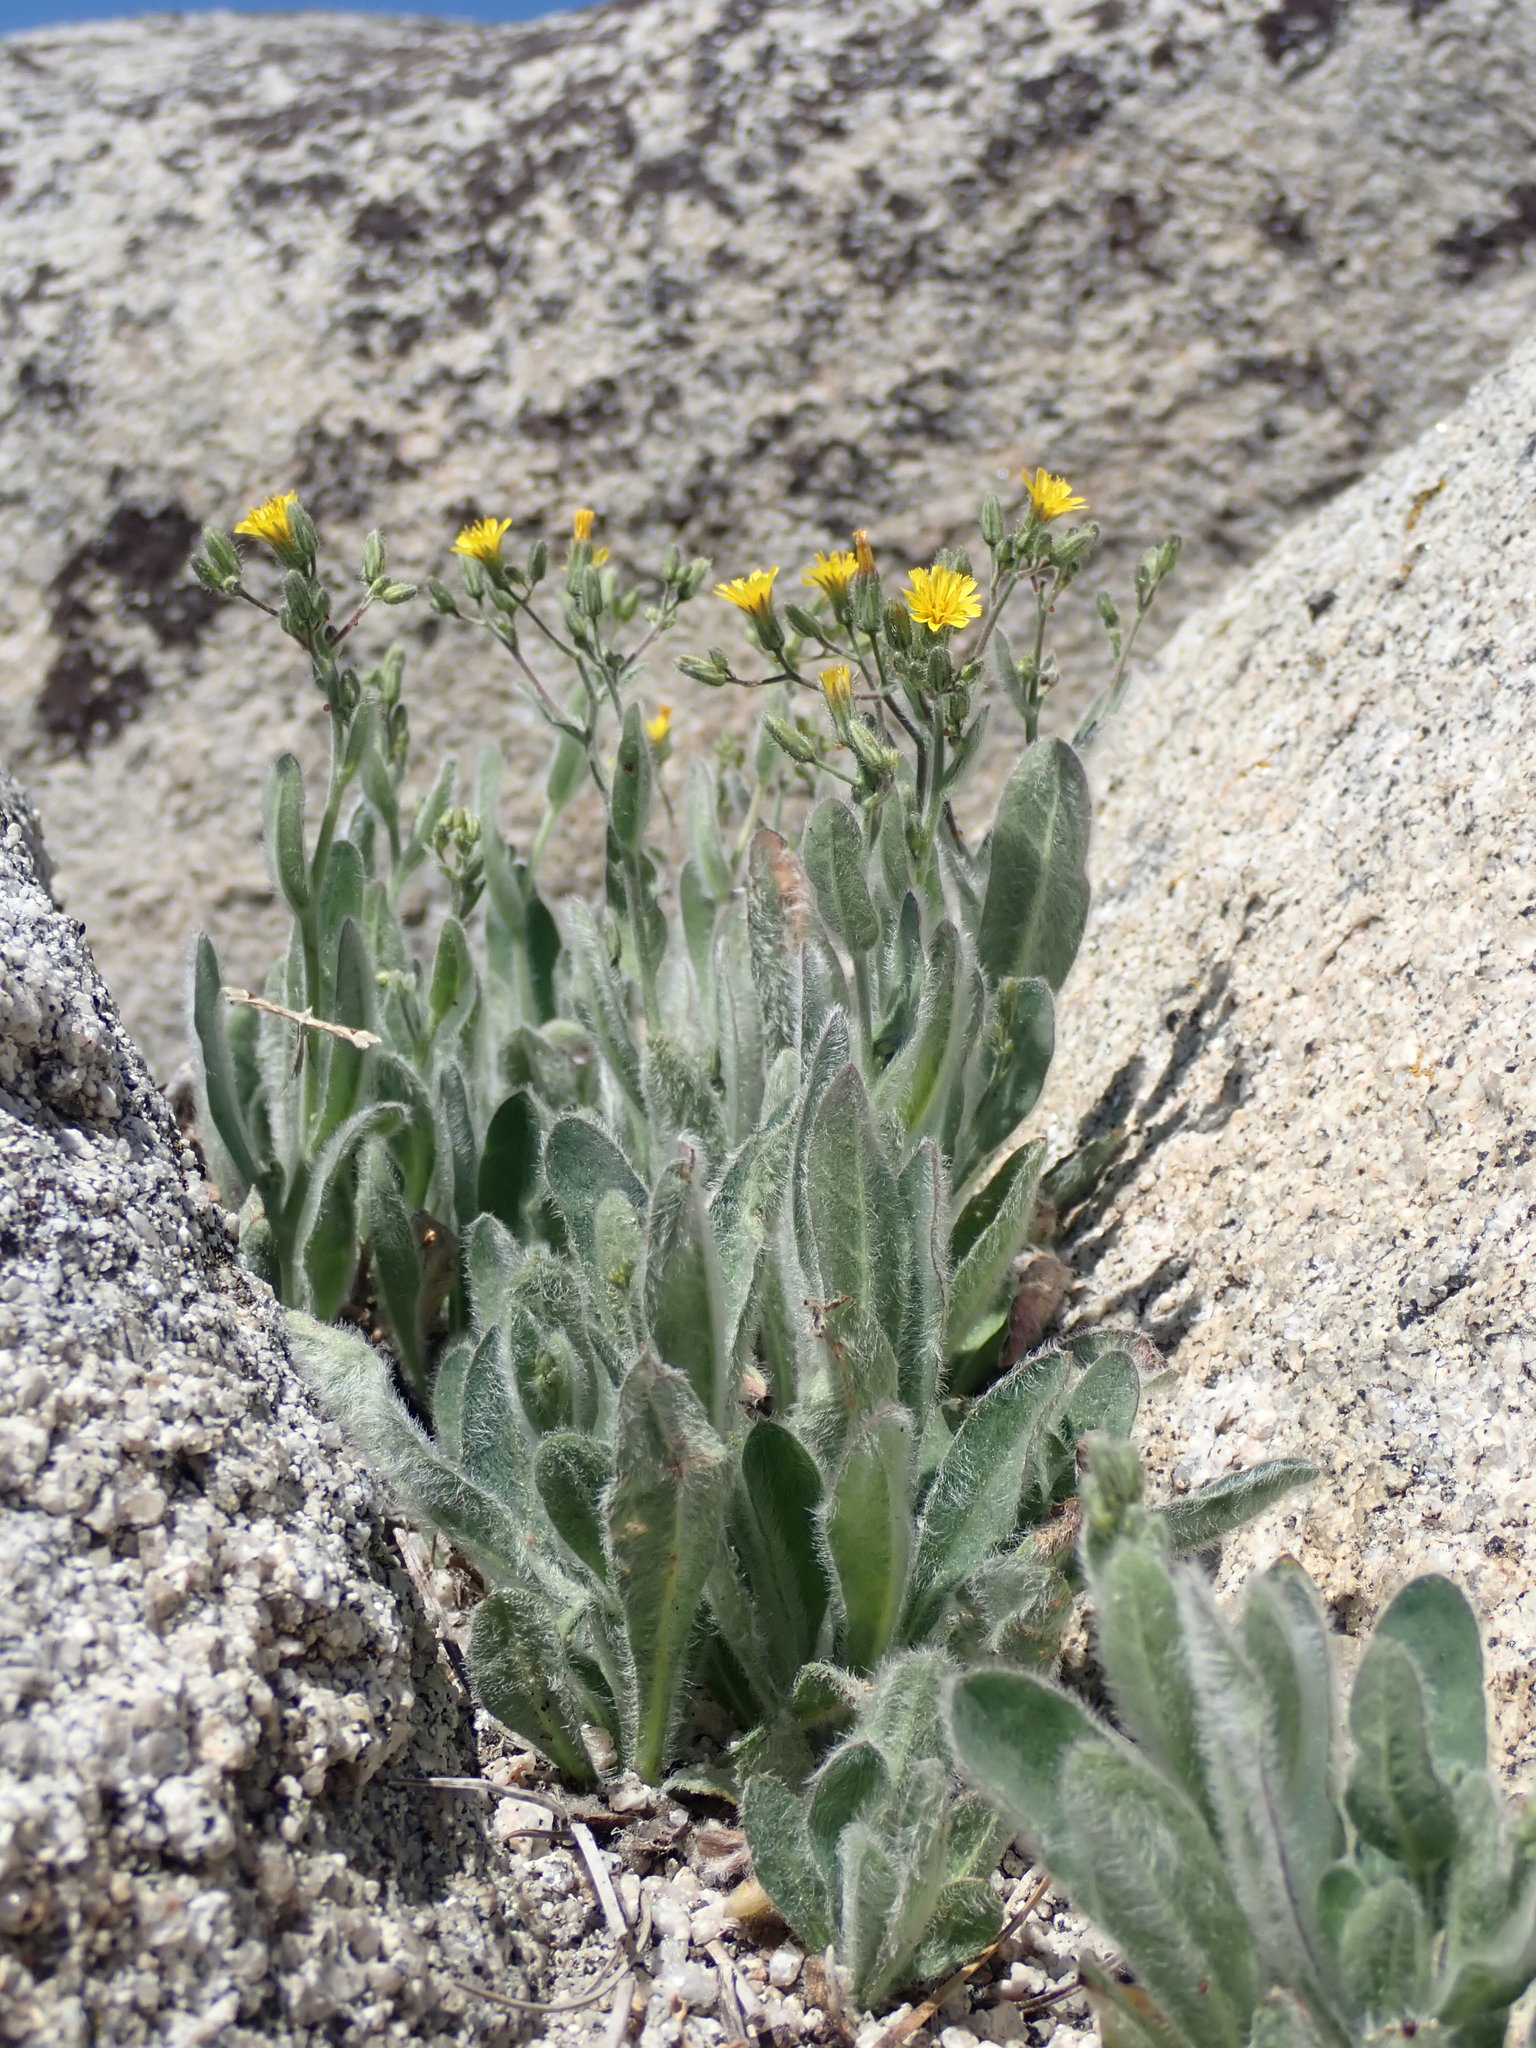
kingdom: Plantae
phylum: Tracheophyta
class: Magnoliopsida
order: Asterales
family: Asteraceae
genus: Hieracium
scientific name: Hieracium horridum
